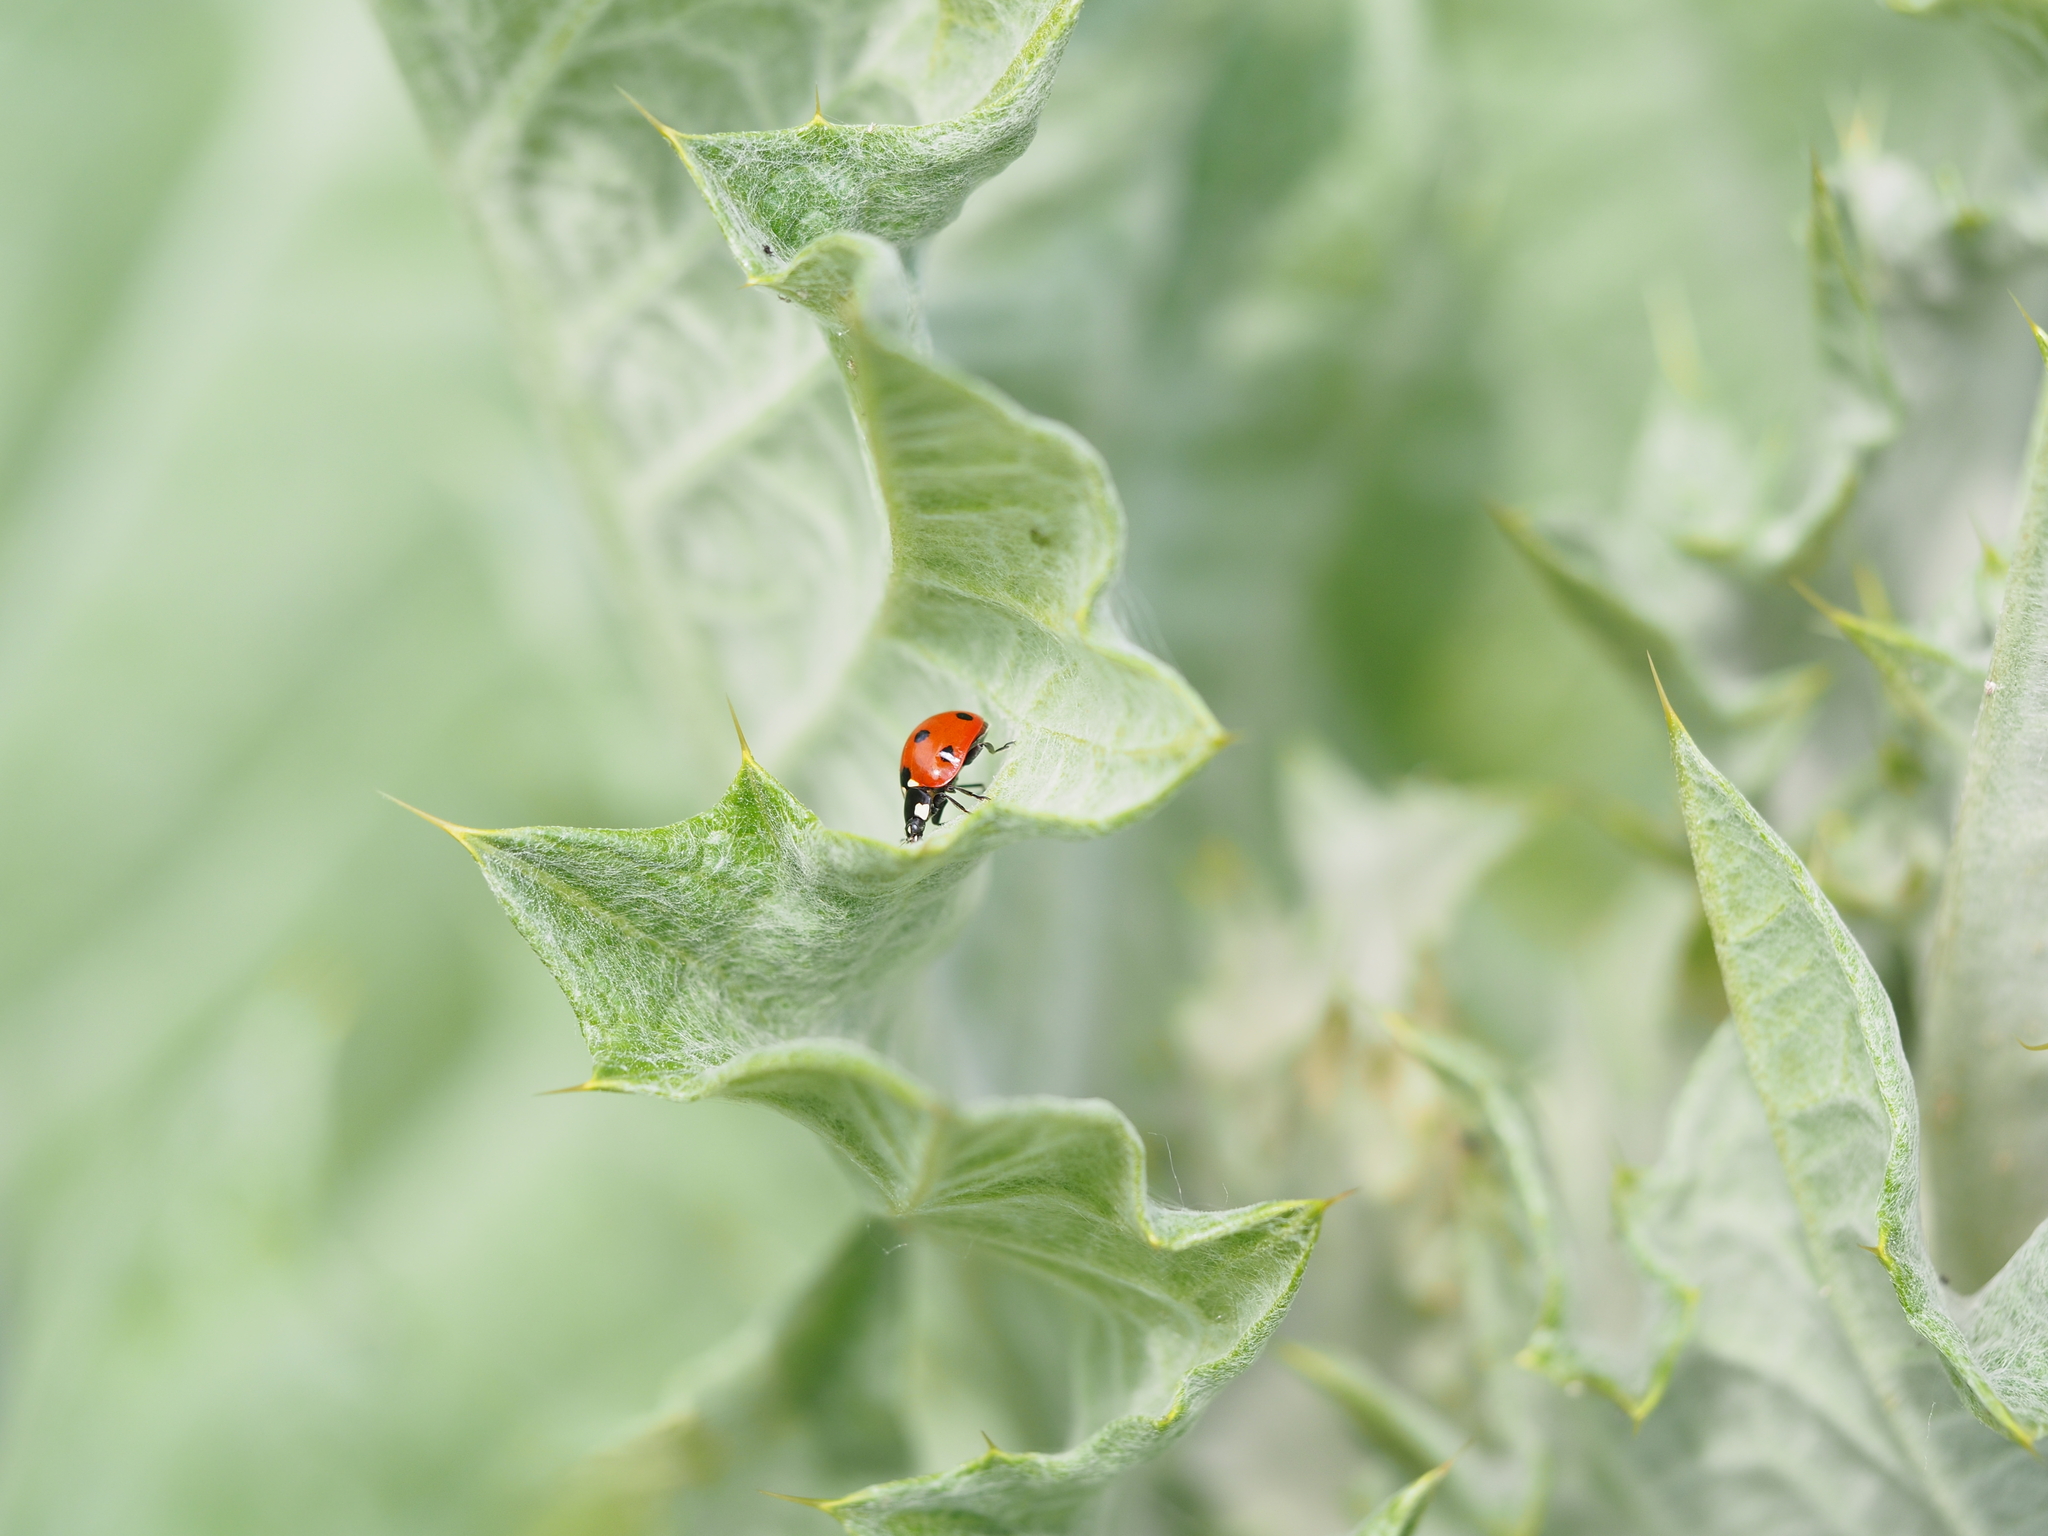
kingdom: Animalia
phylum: Arthropoda
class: Insecta
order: Coleoptera
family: Coccinellidae
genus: Coccinella
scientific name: Coccinella septempunctata
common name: Sevenspotted lady beetle
